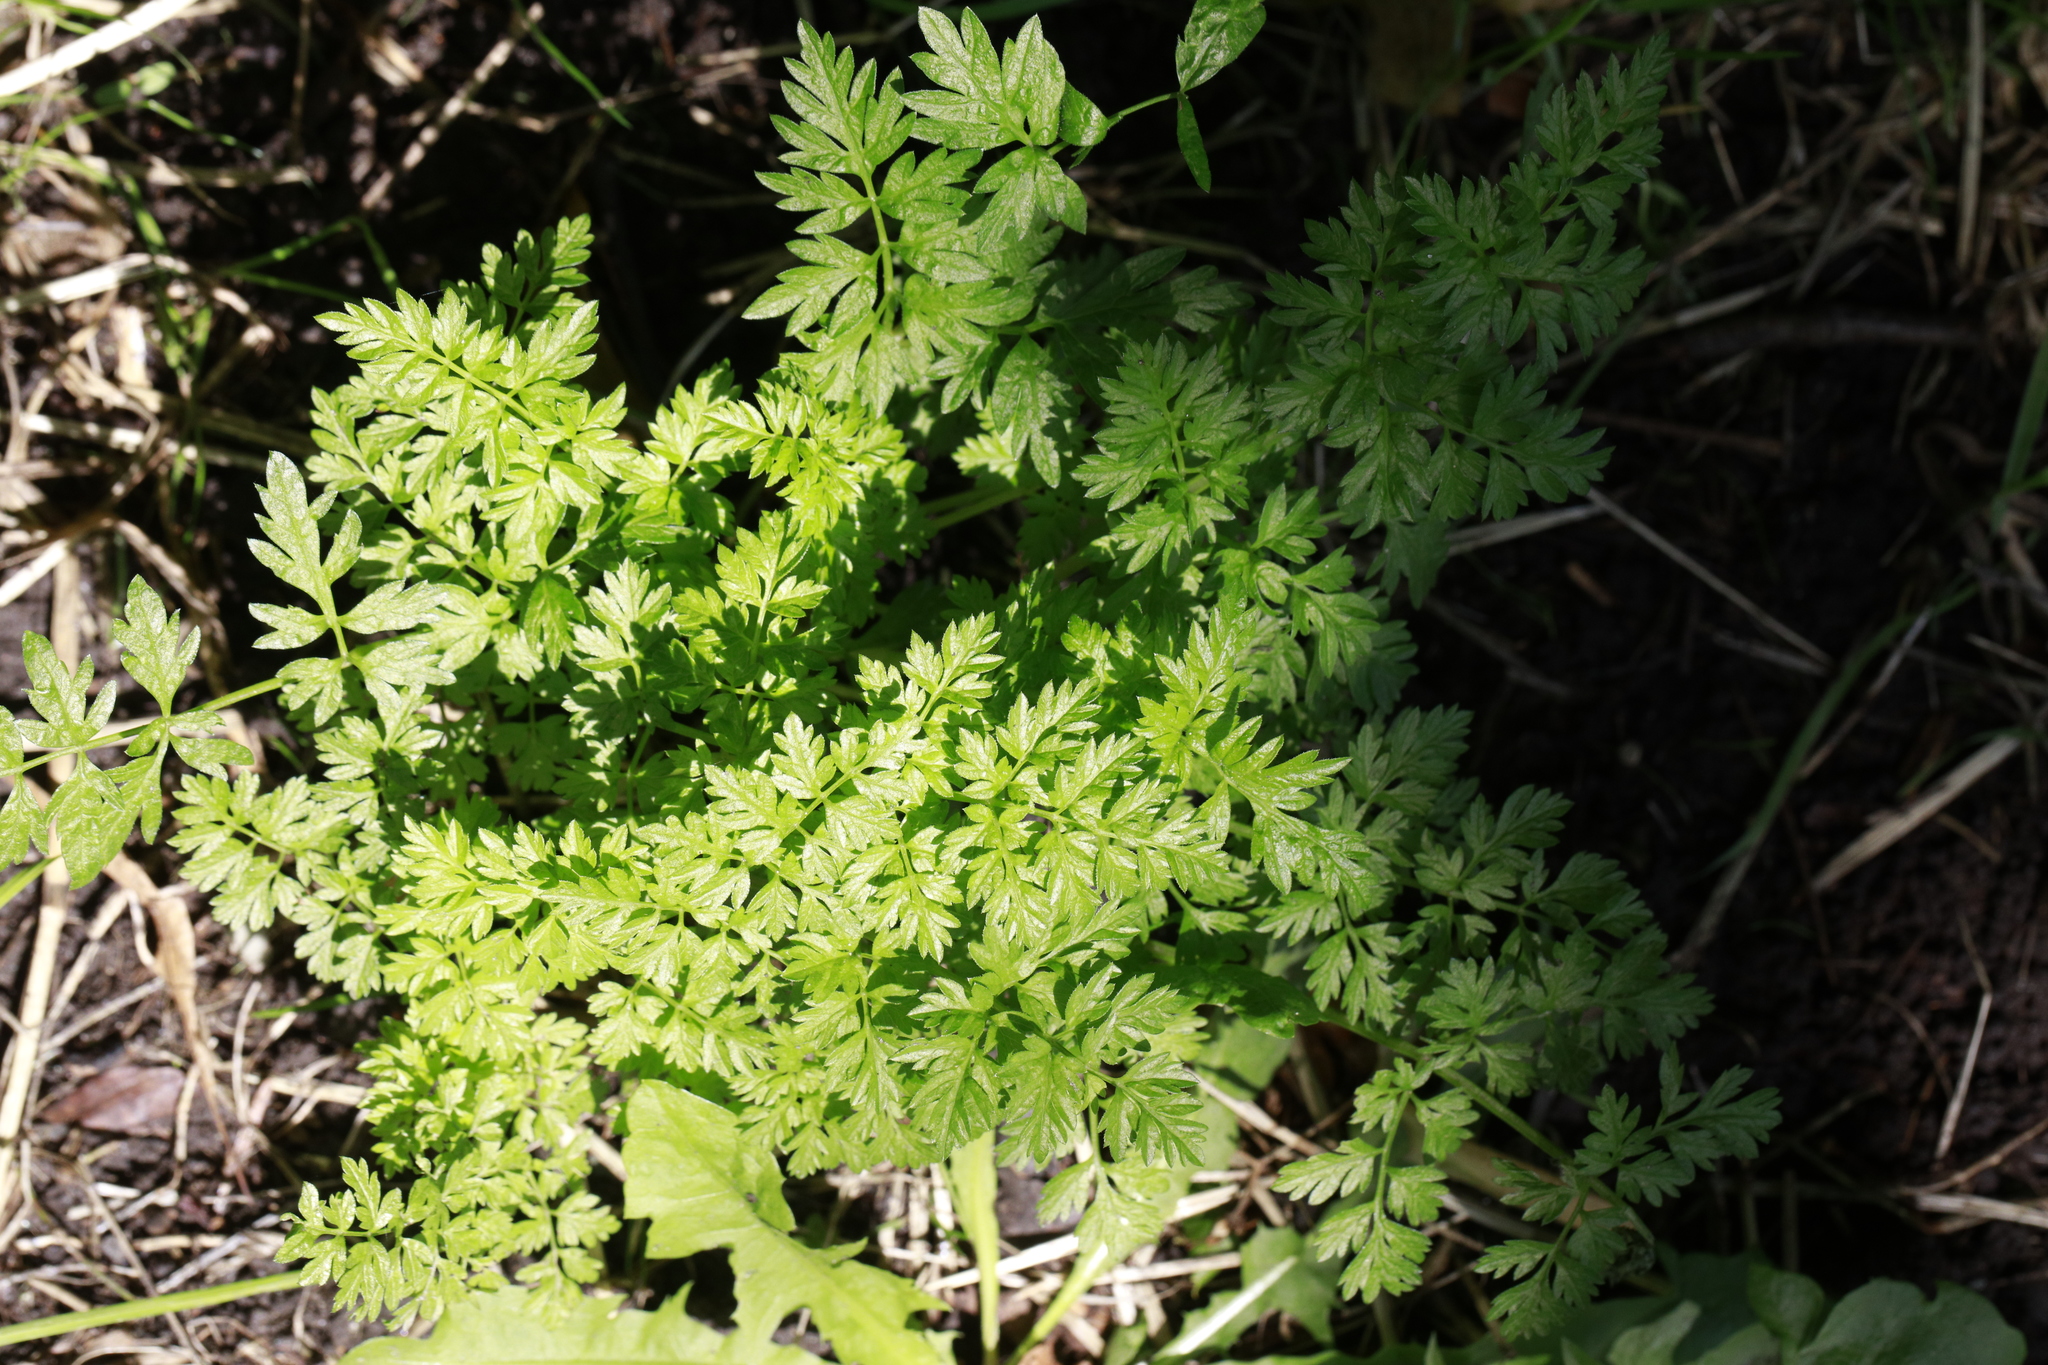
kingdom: Plantae
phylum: Tracheophyta
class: Magnoliopsida
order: Apiales
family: Apiaceae
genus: Anthriscus
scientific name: Anthriscus sylvestris
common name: Cow parsley
